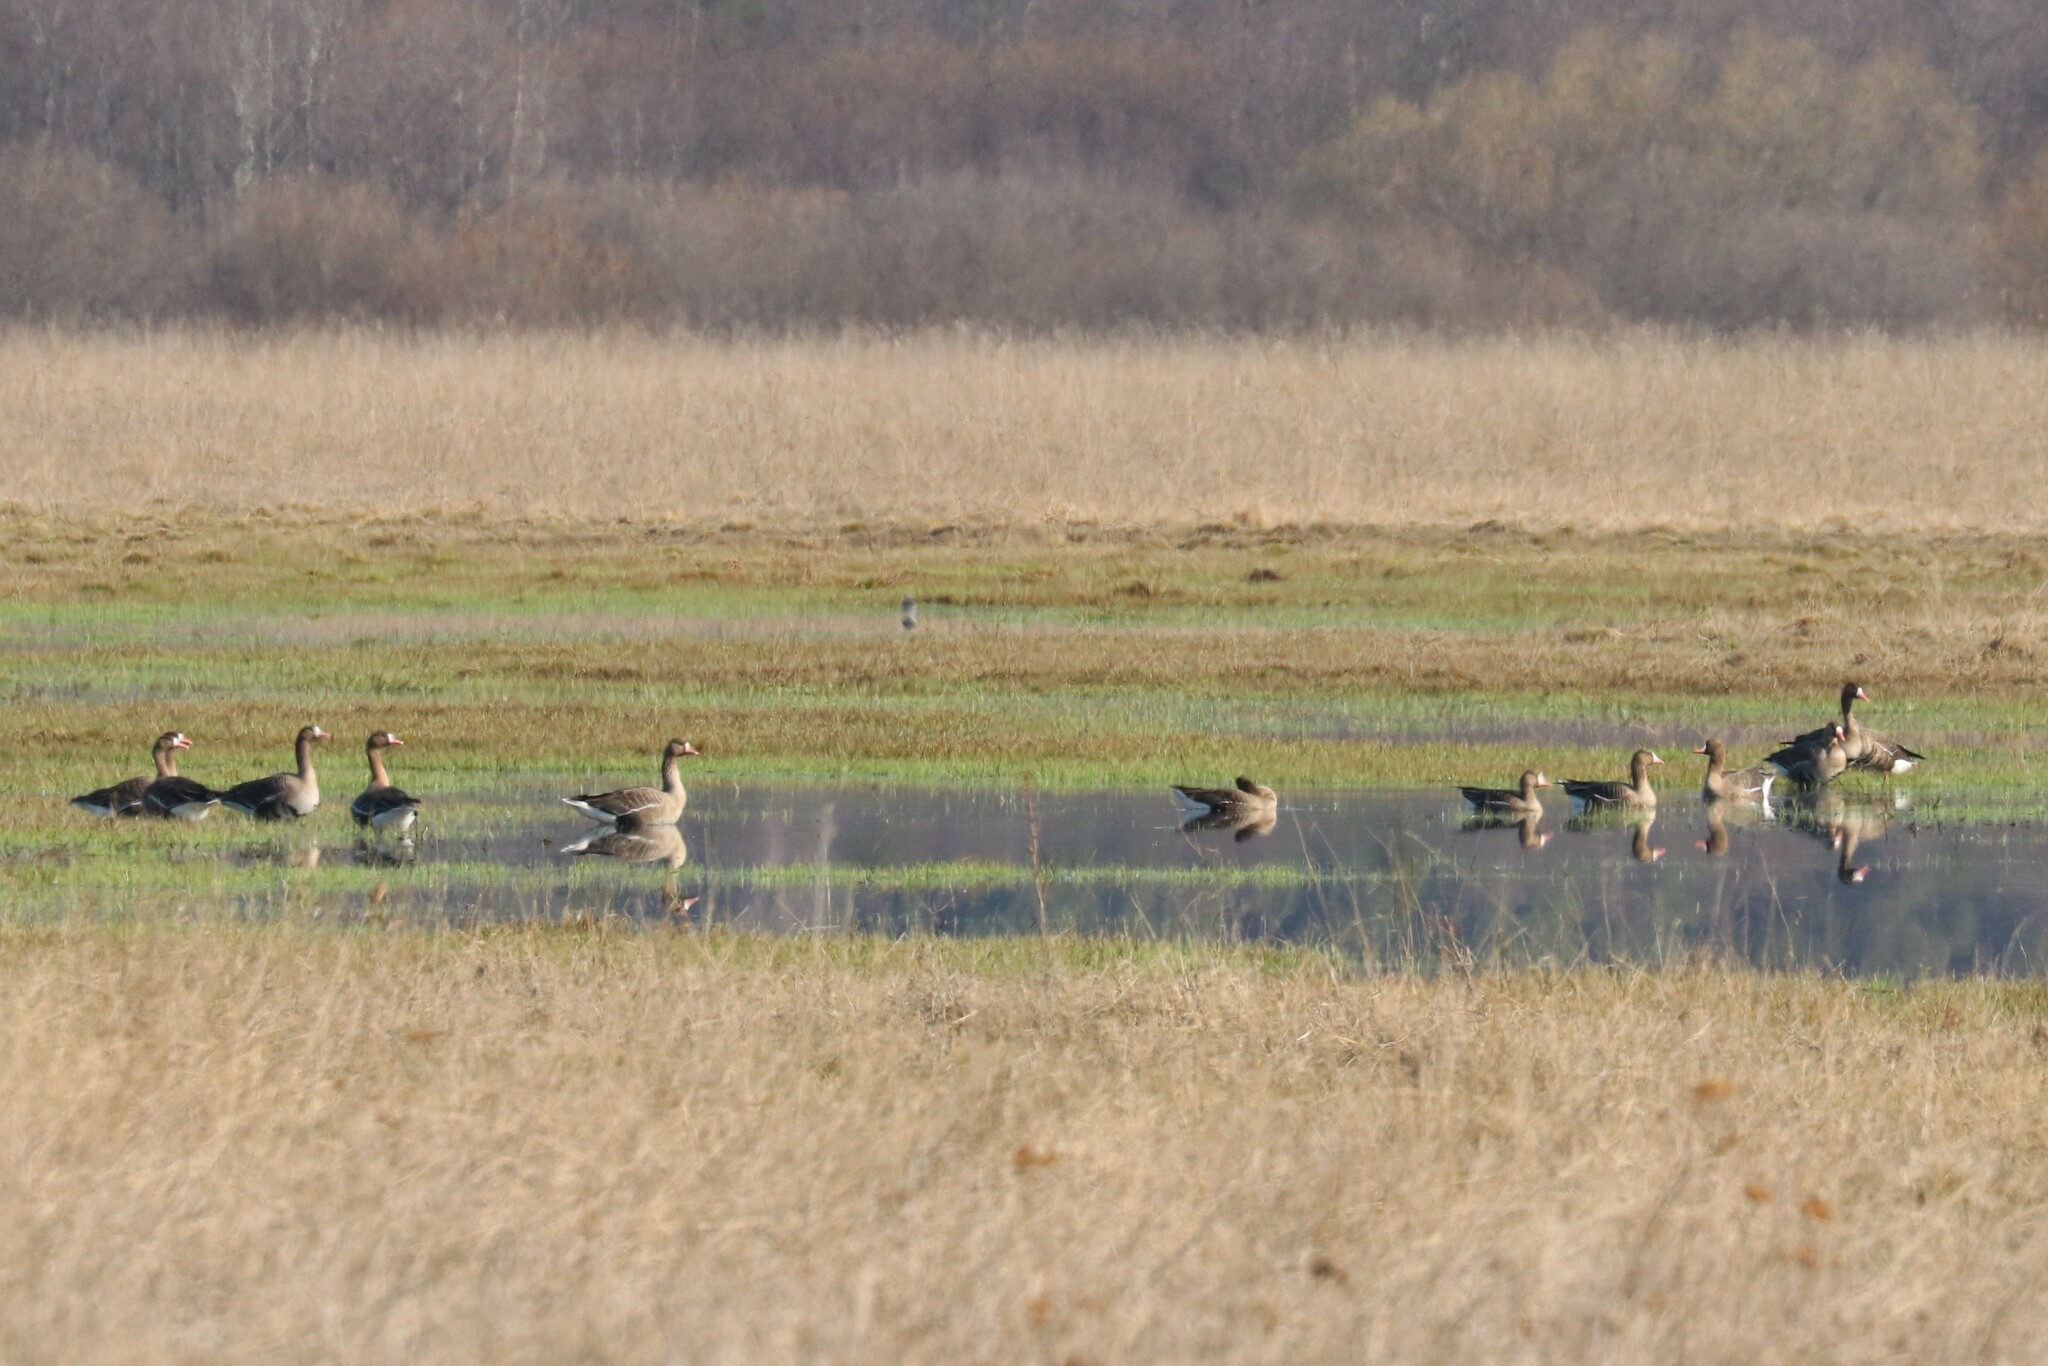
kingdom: Animalia
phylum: Chordata
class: Aves
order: Anseriformes
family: Anatidae
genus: Anser
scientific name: Anser albifrons
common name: Greater white-fronted goose
